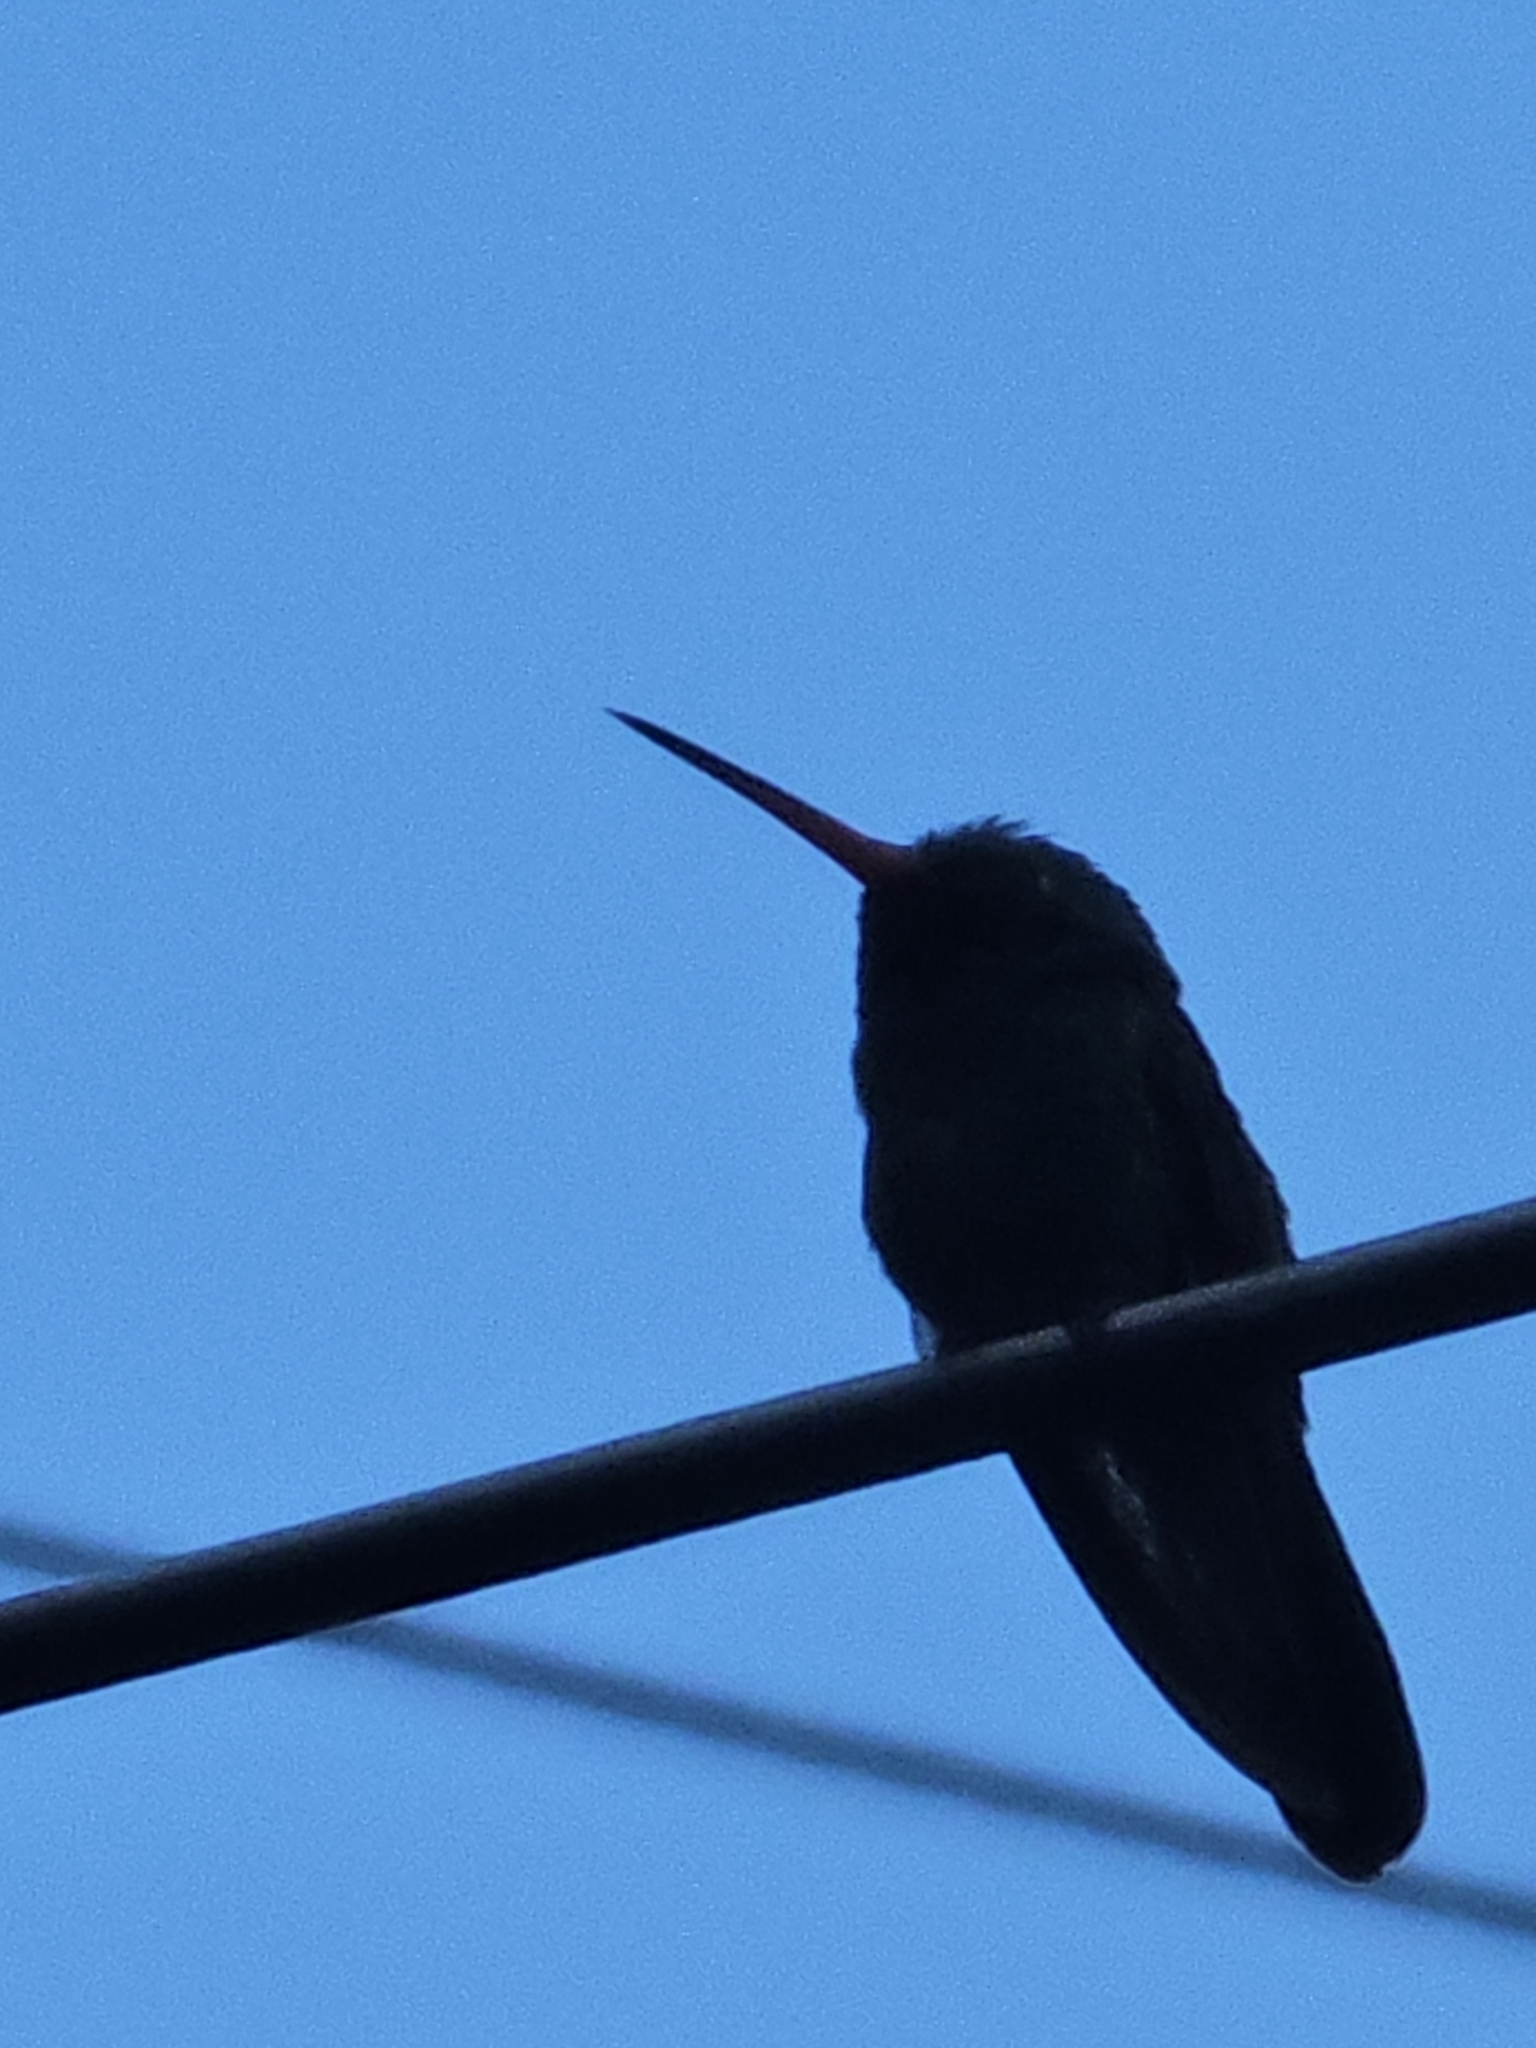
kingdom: Animalia
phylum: Chordata
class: Aves
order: Apodiformes
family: Trochilidae
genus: Cynanthus
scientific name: Cynanthus latirostris
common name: Broad-billed hummingbird
